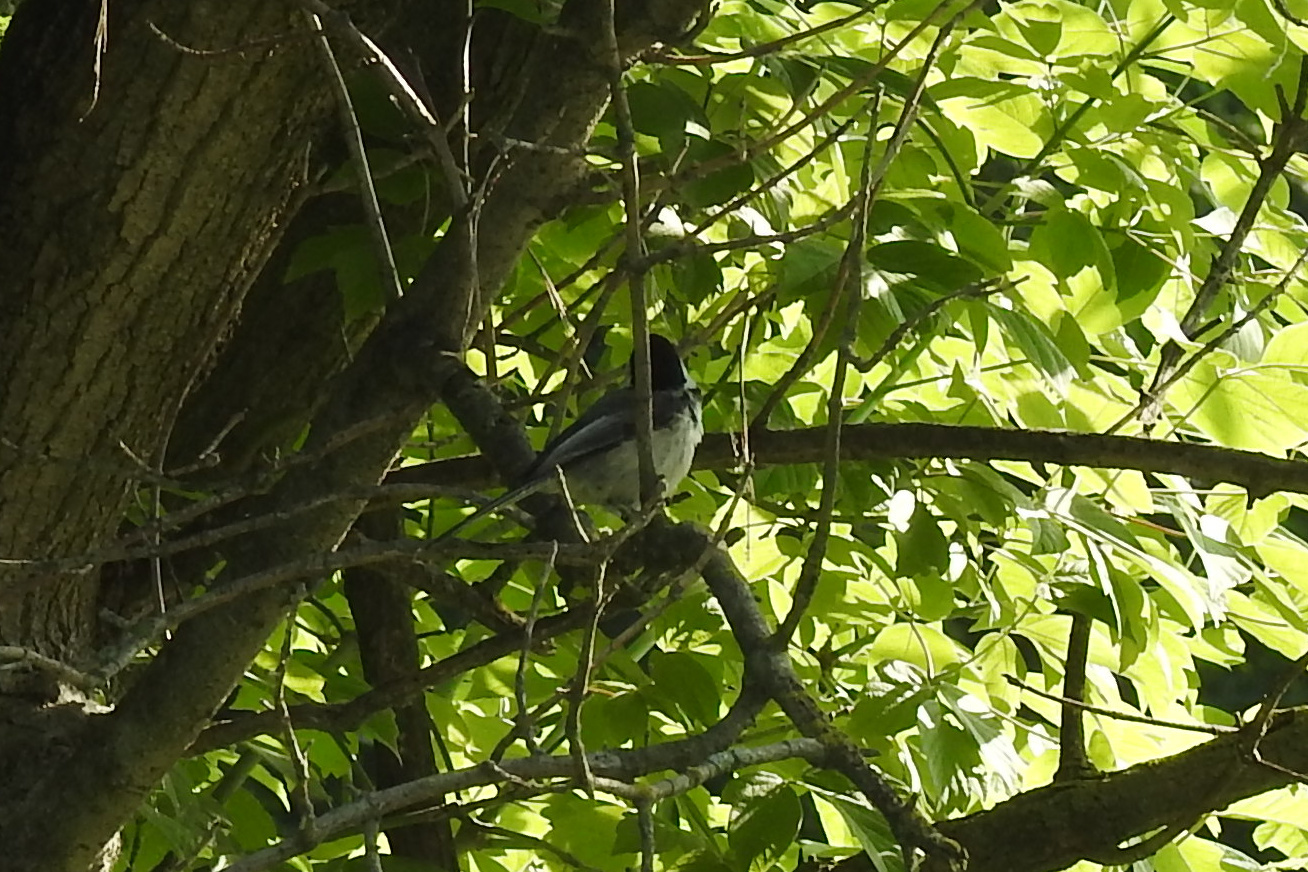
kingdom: Animalia
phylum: Chordata
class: Aves
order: Passeriformes
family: Paridae
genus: Poecile
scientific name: Poecile carolinensis
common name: Carolina chickadee
